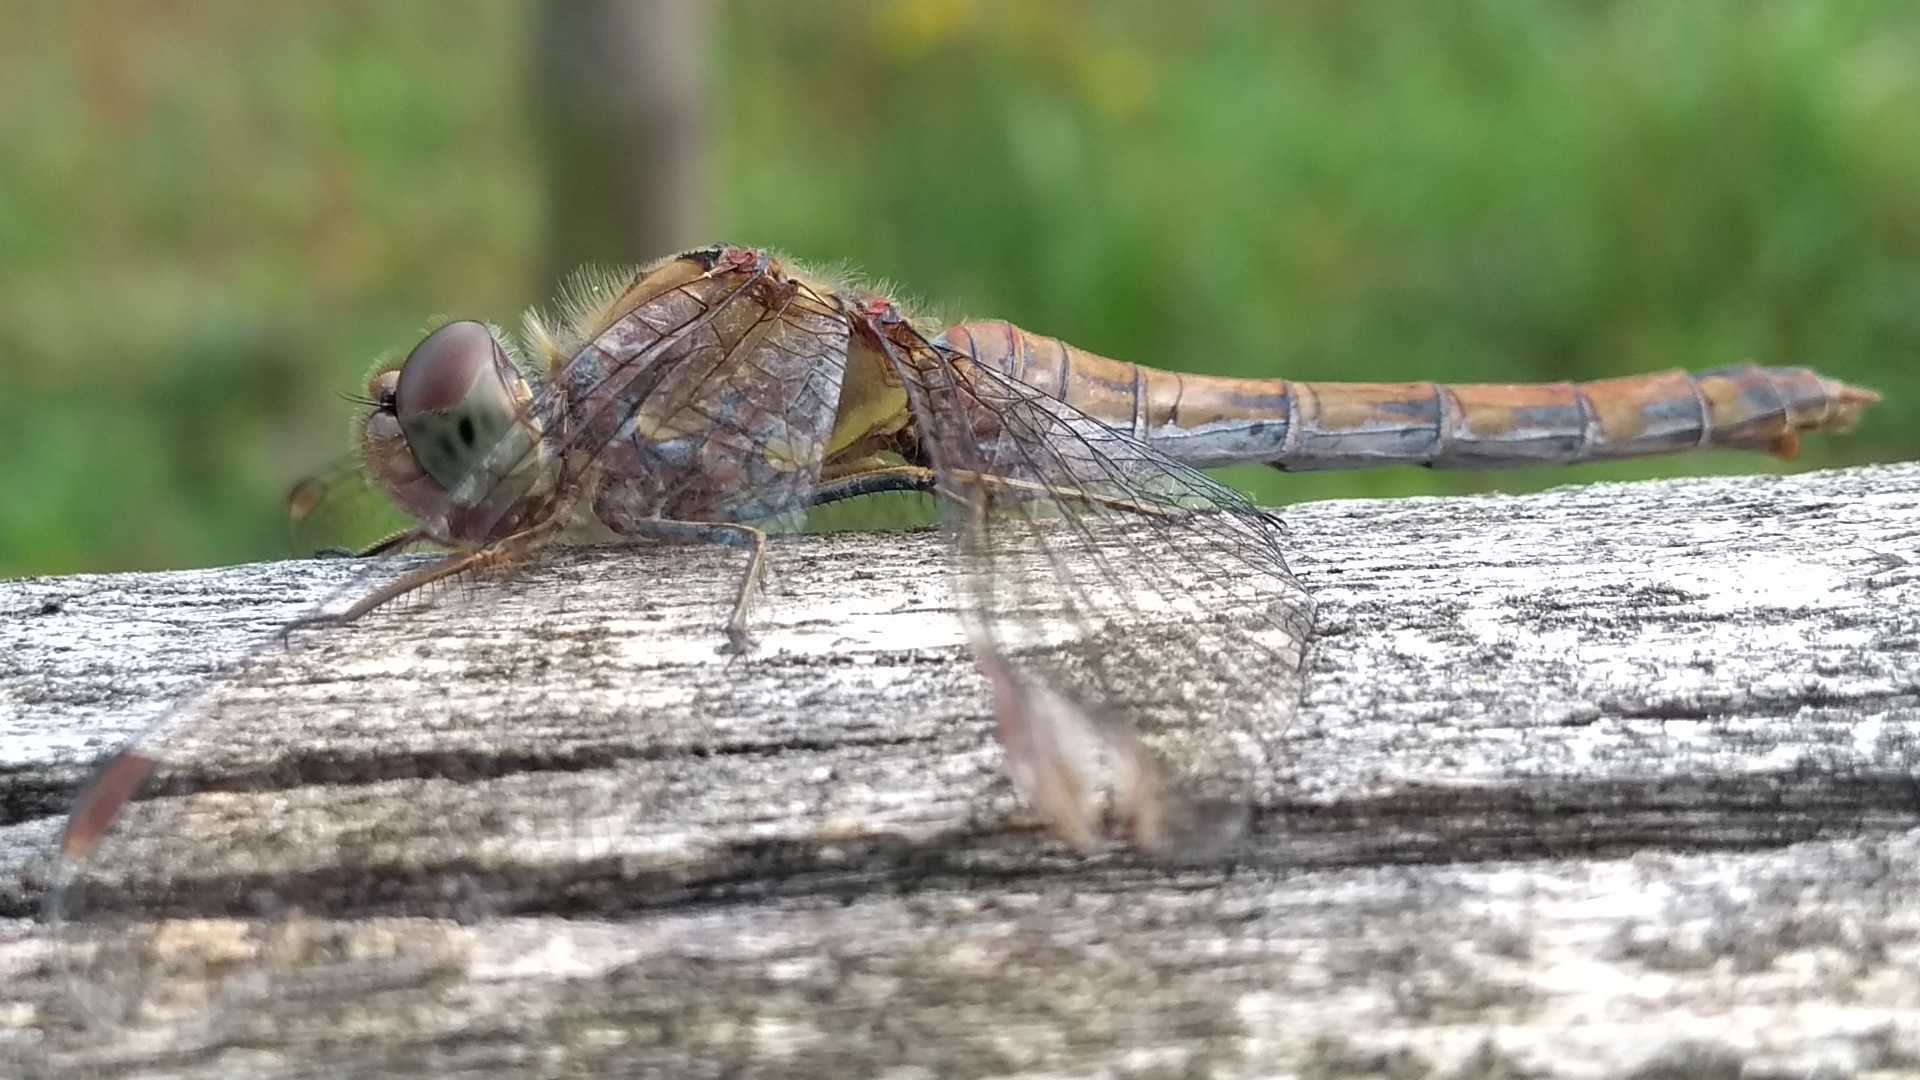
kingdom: Animalia
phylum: Arthropoda
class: Insecta
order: Odonata
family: Libellulidae
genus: Sympetrum
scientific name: Sympetrum striolatum
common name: Common darter
